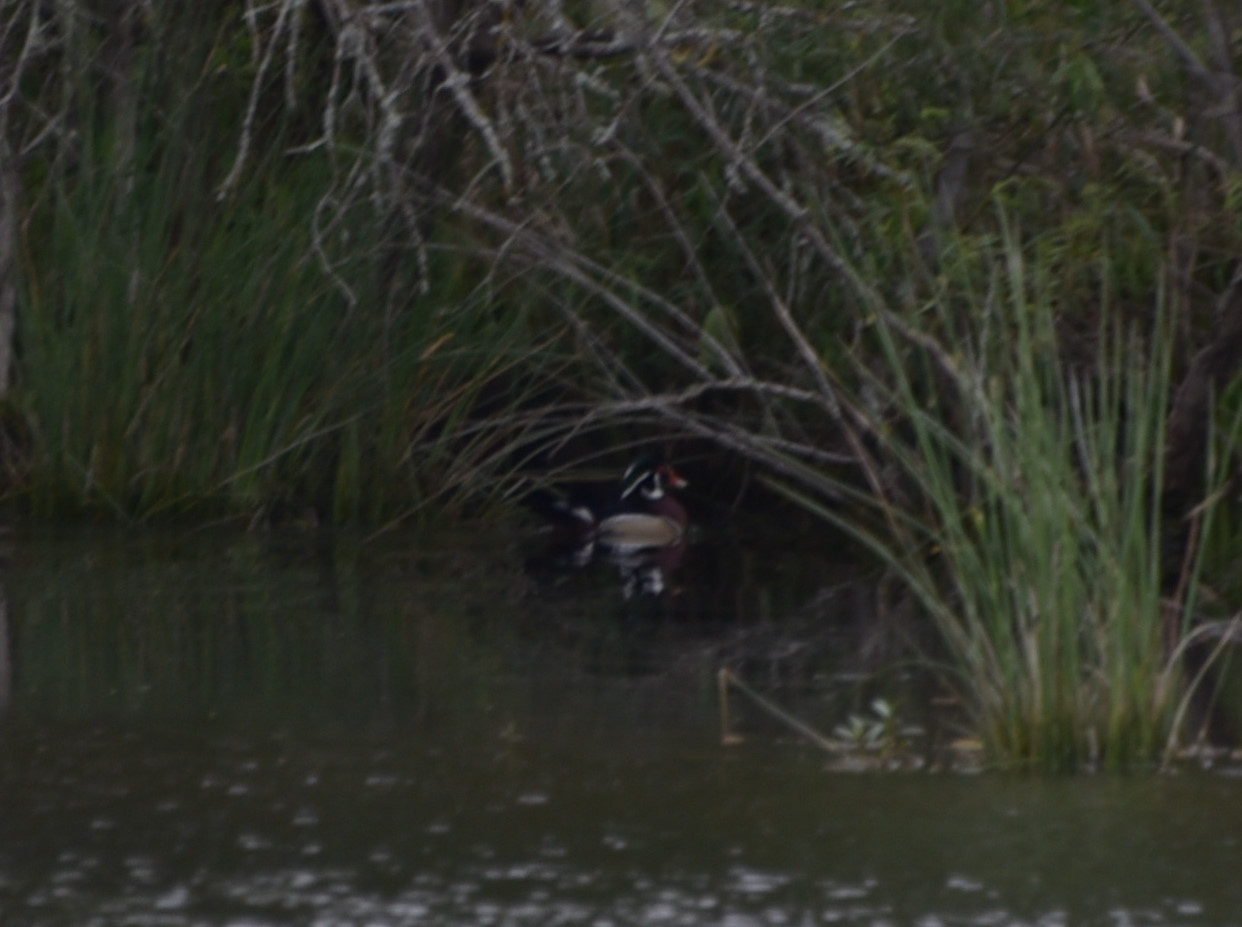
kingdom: Animalia
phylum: Chordata
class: Aves
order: Anseriformes
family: Anatidae
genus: Aix
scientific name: Aix sponsa
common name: Wood duck
